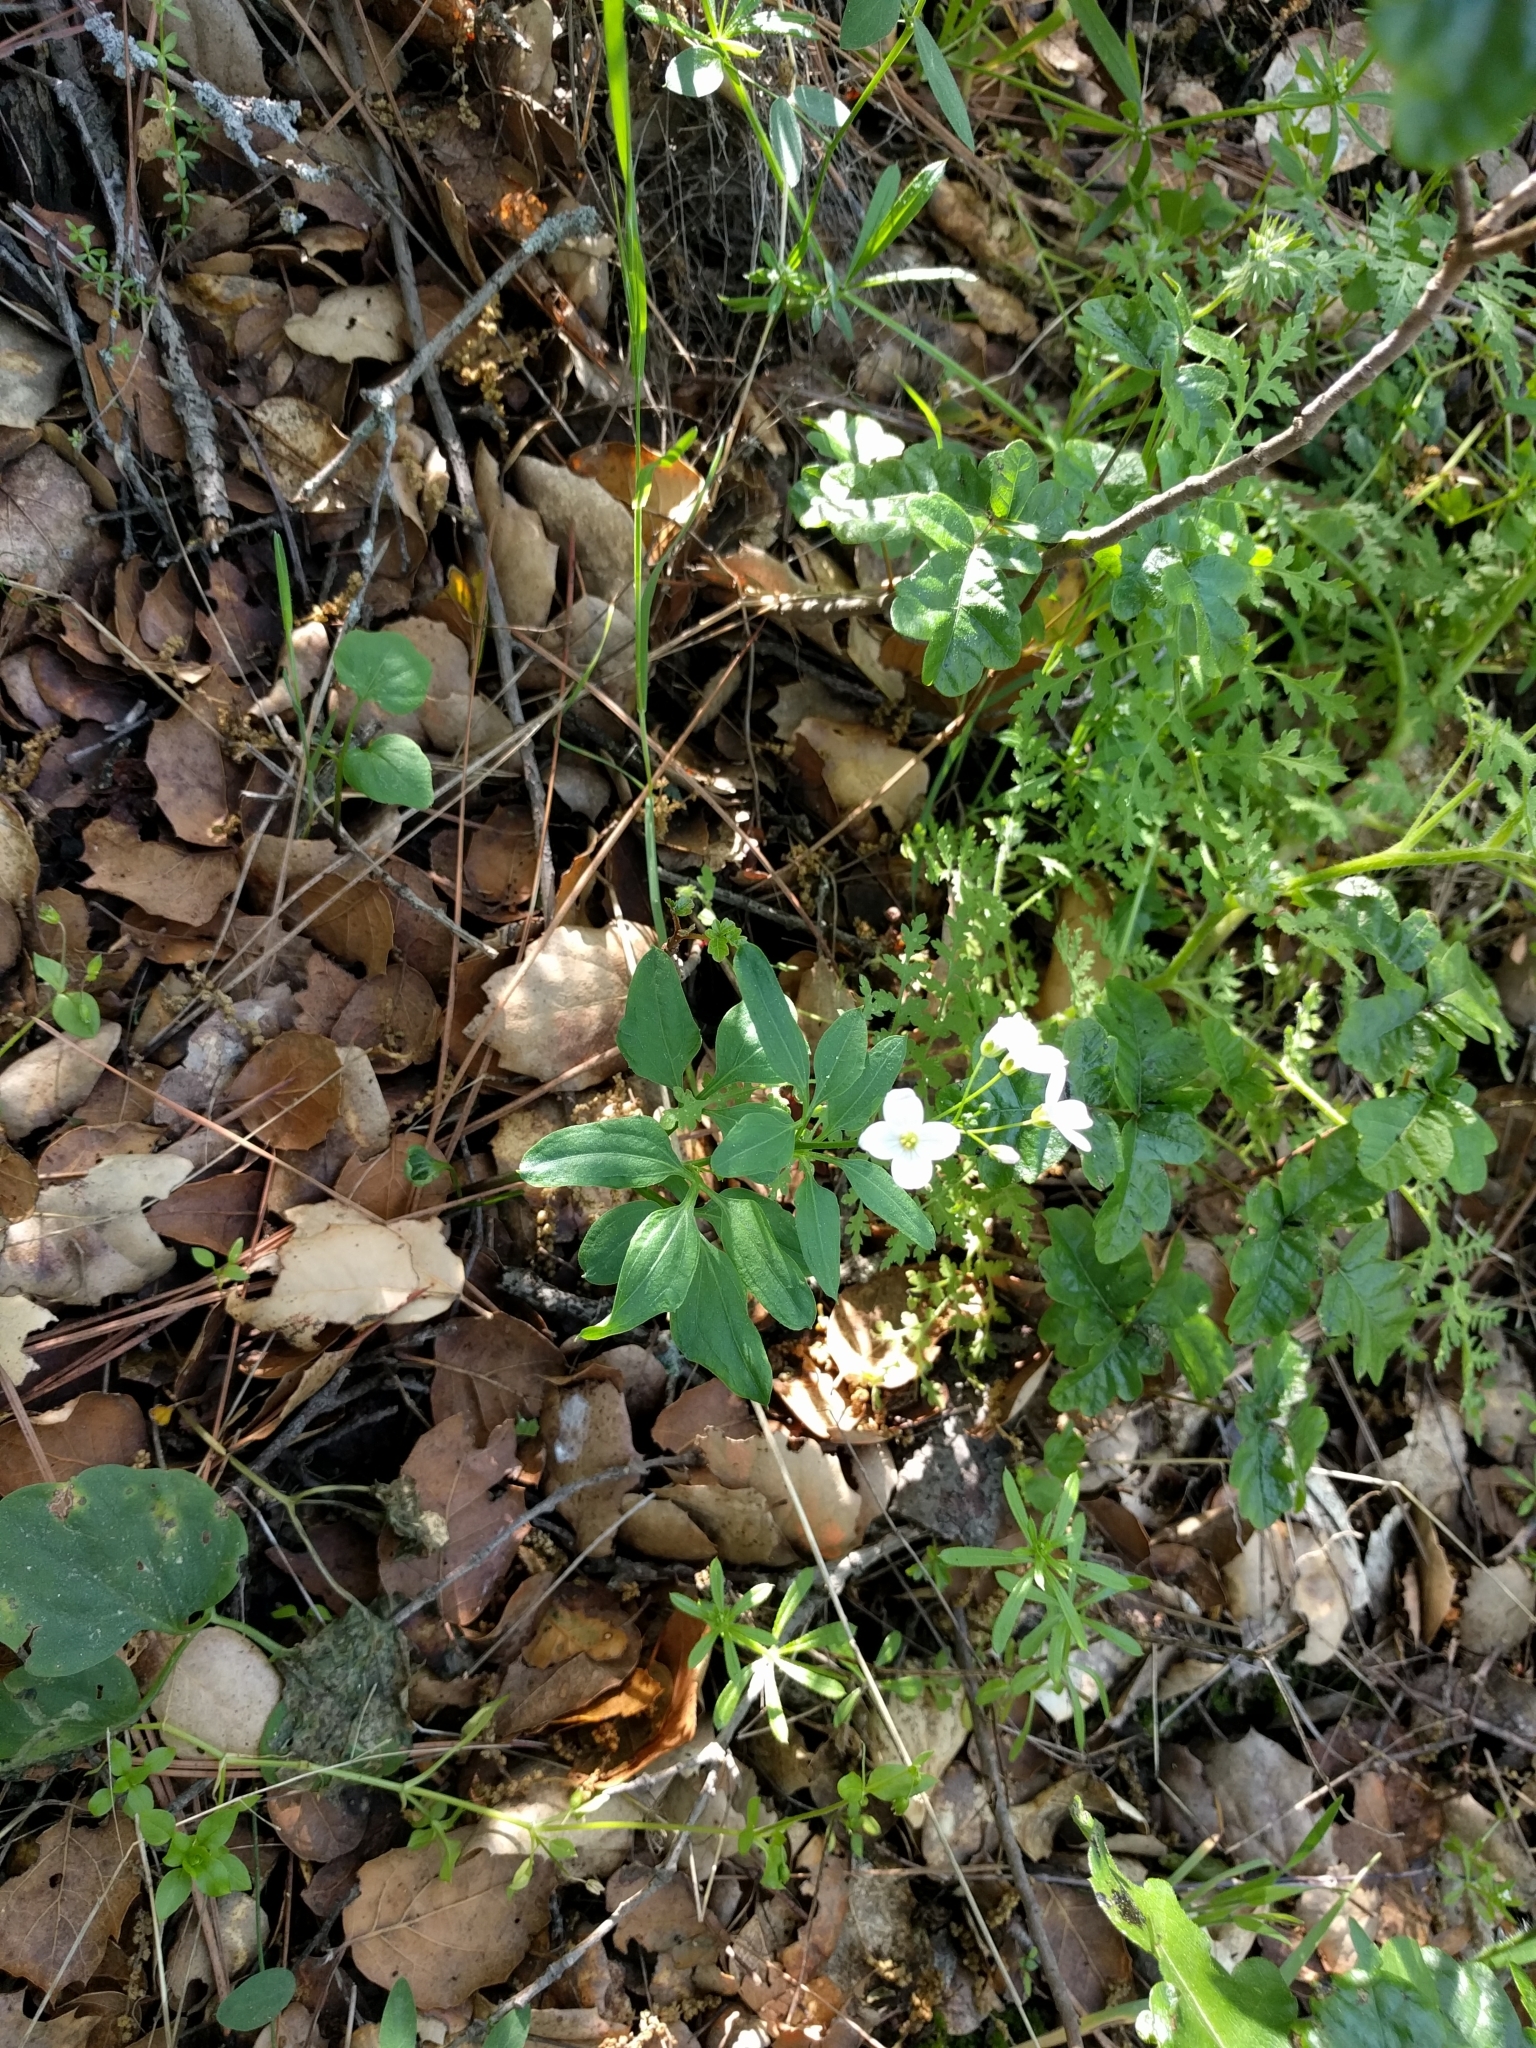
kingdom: Plantae
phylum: Tracheophyta
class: Magnoliopsida
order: Brassicales
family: Brassicaceae
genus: Cardamine
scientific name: Cardamine californica
